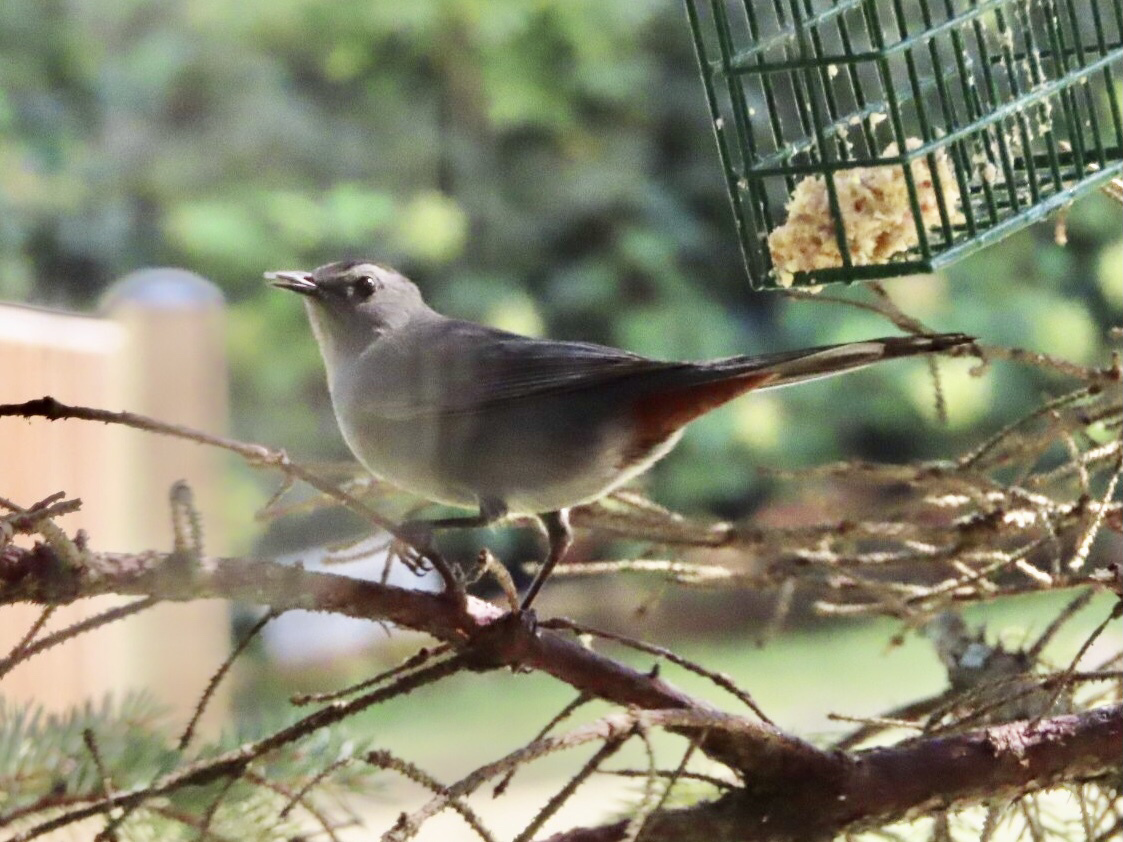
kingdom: Animalia
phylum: Chordata
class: Aves
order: Passeriformes
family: Mimidae
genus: Dumetella
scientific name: Dumetella carolinensis
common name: Gray catbird
